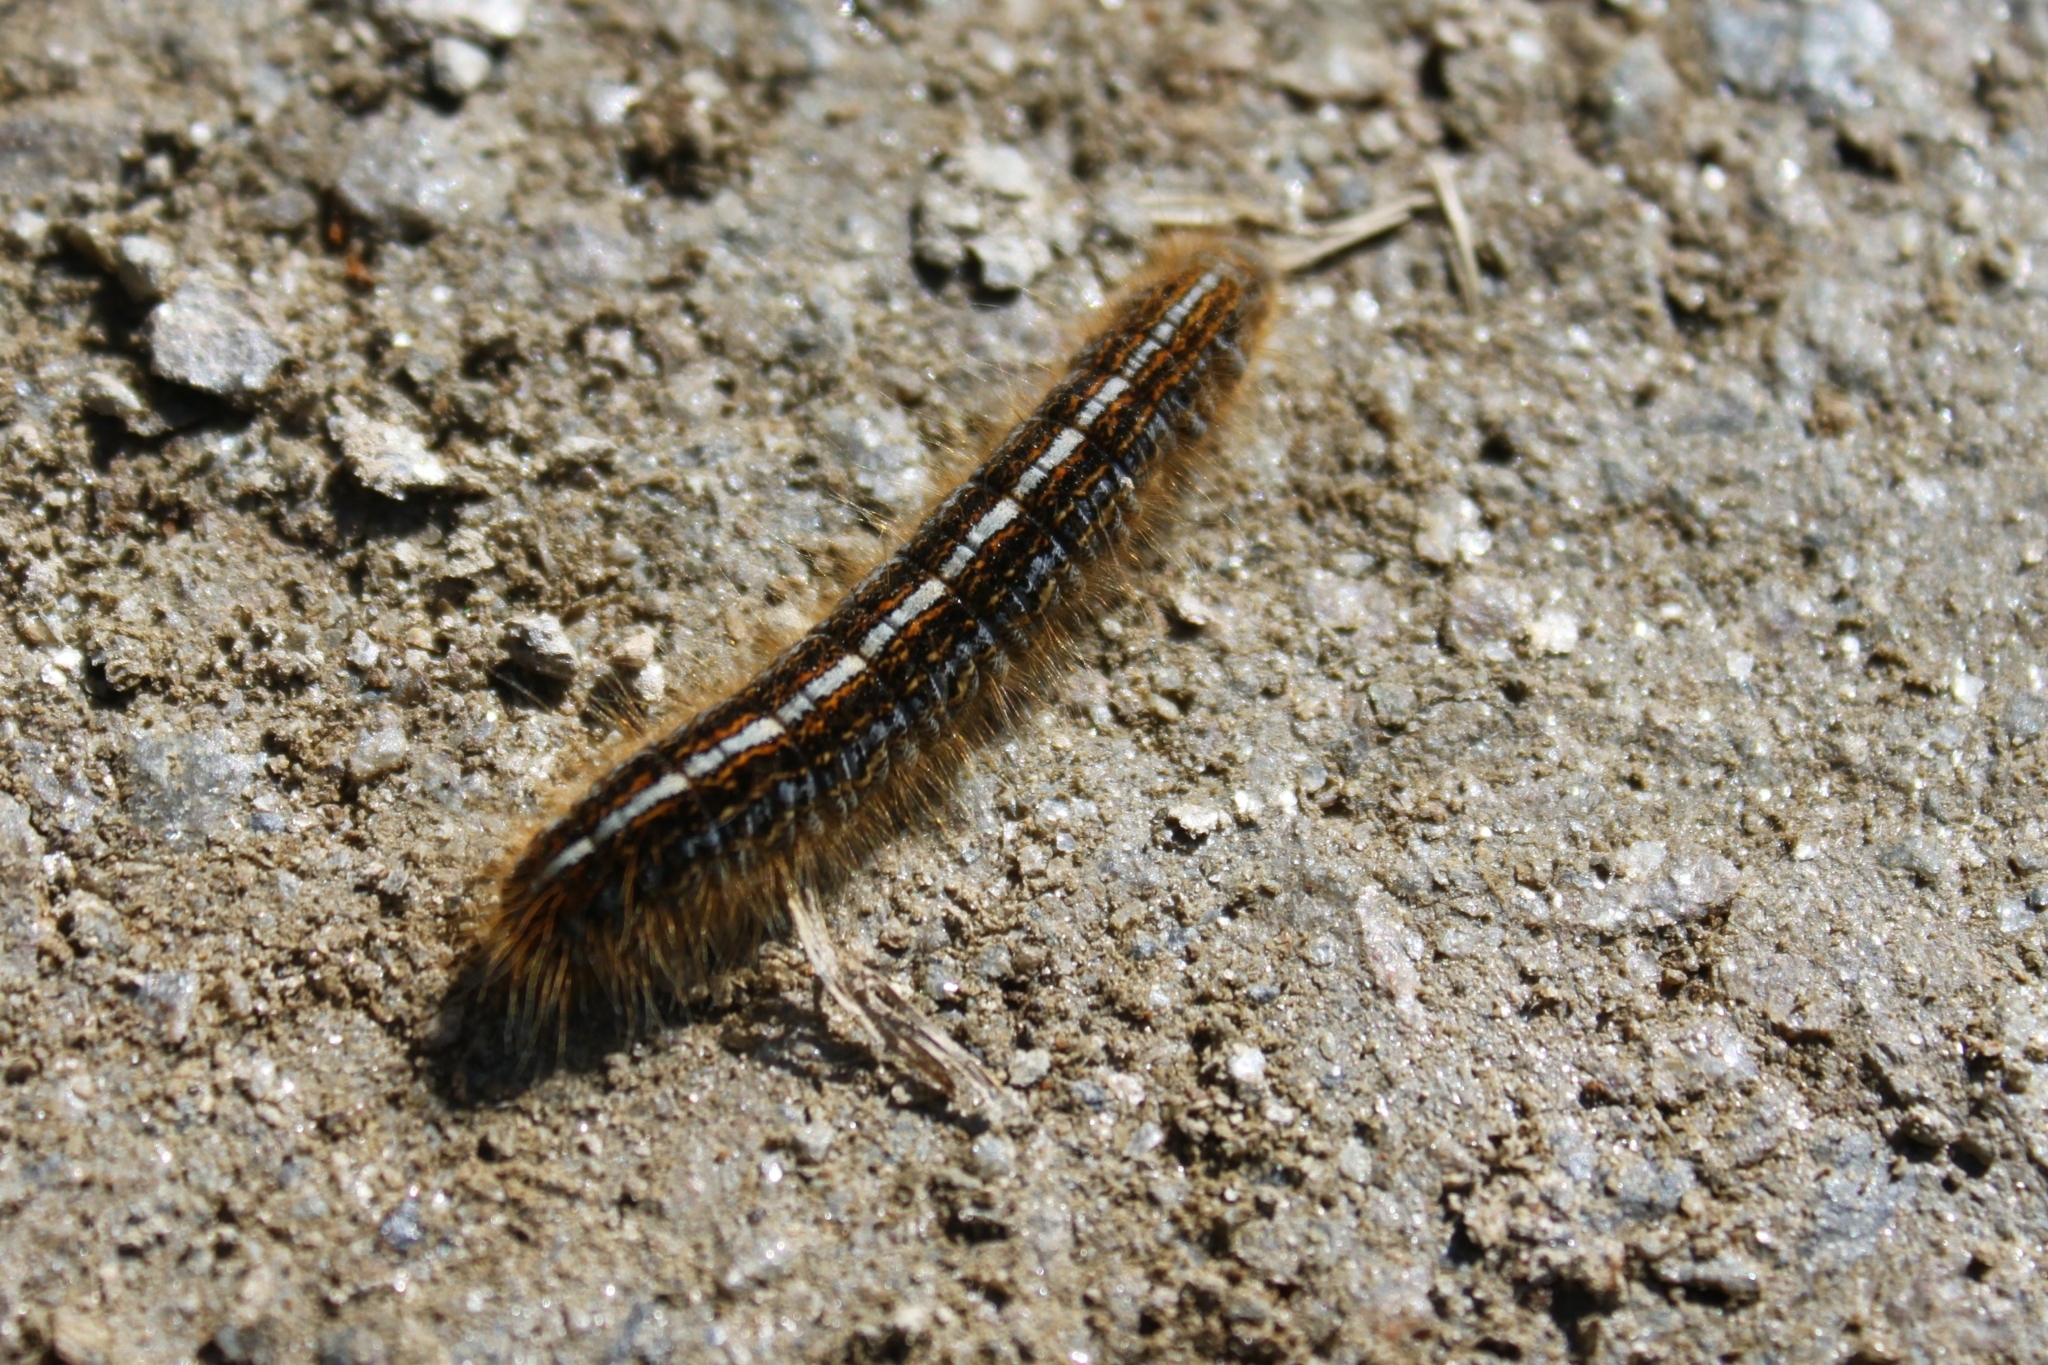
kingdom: Animalia
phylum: Arthropoda
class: Insecta
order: Lepidoptera
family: Lasiocampidae
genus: Malacosoma
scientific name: Malacosoma castrense
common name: Ground lackey
